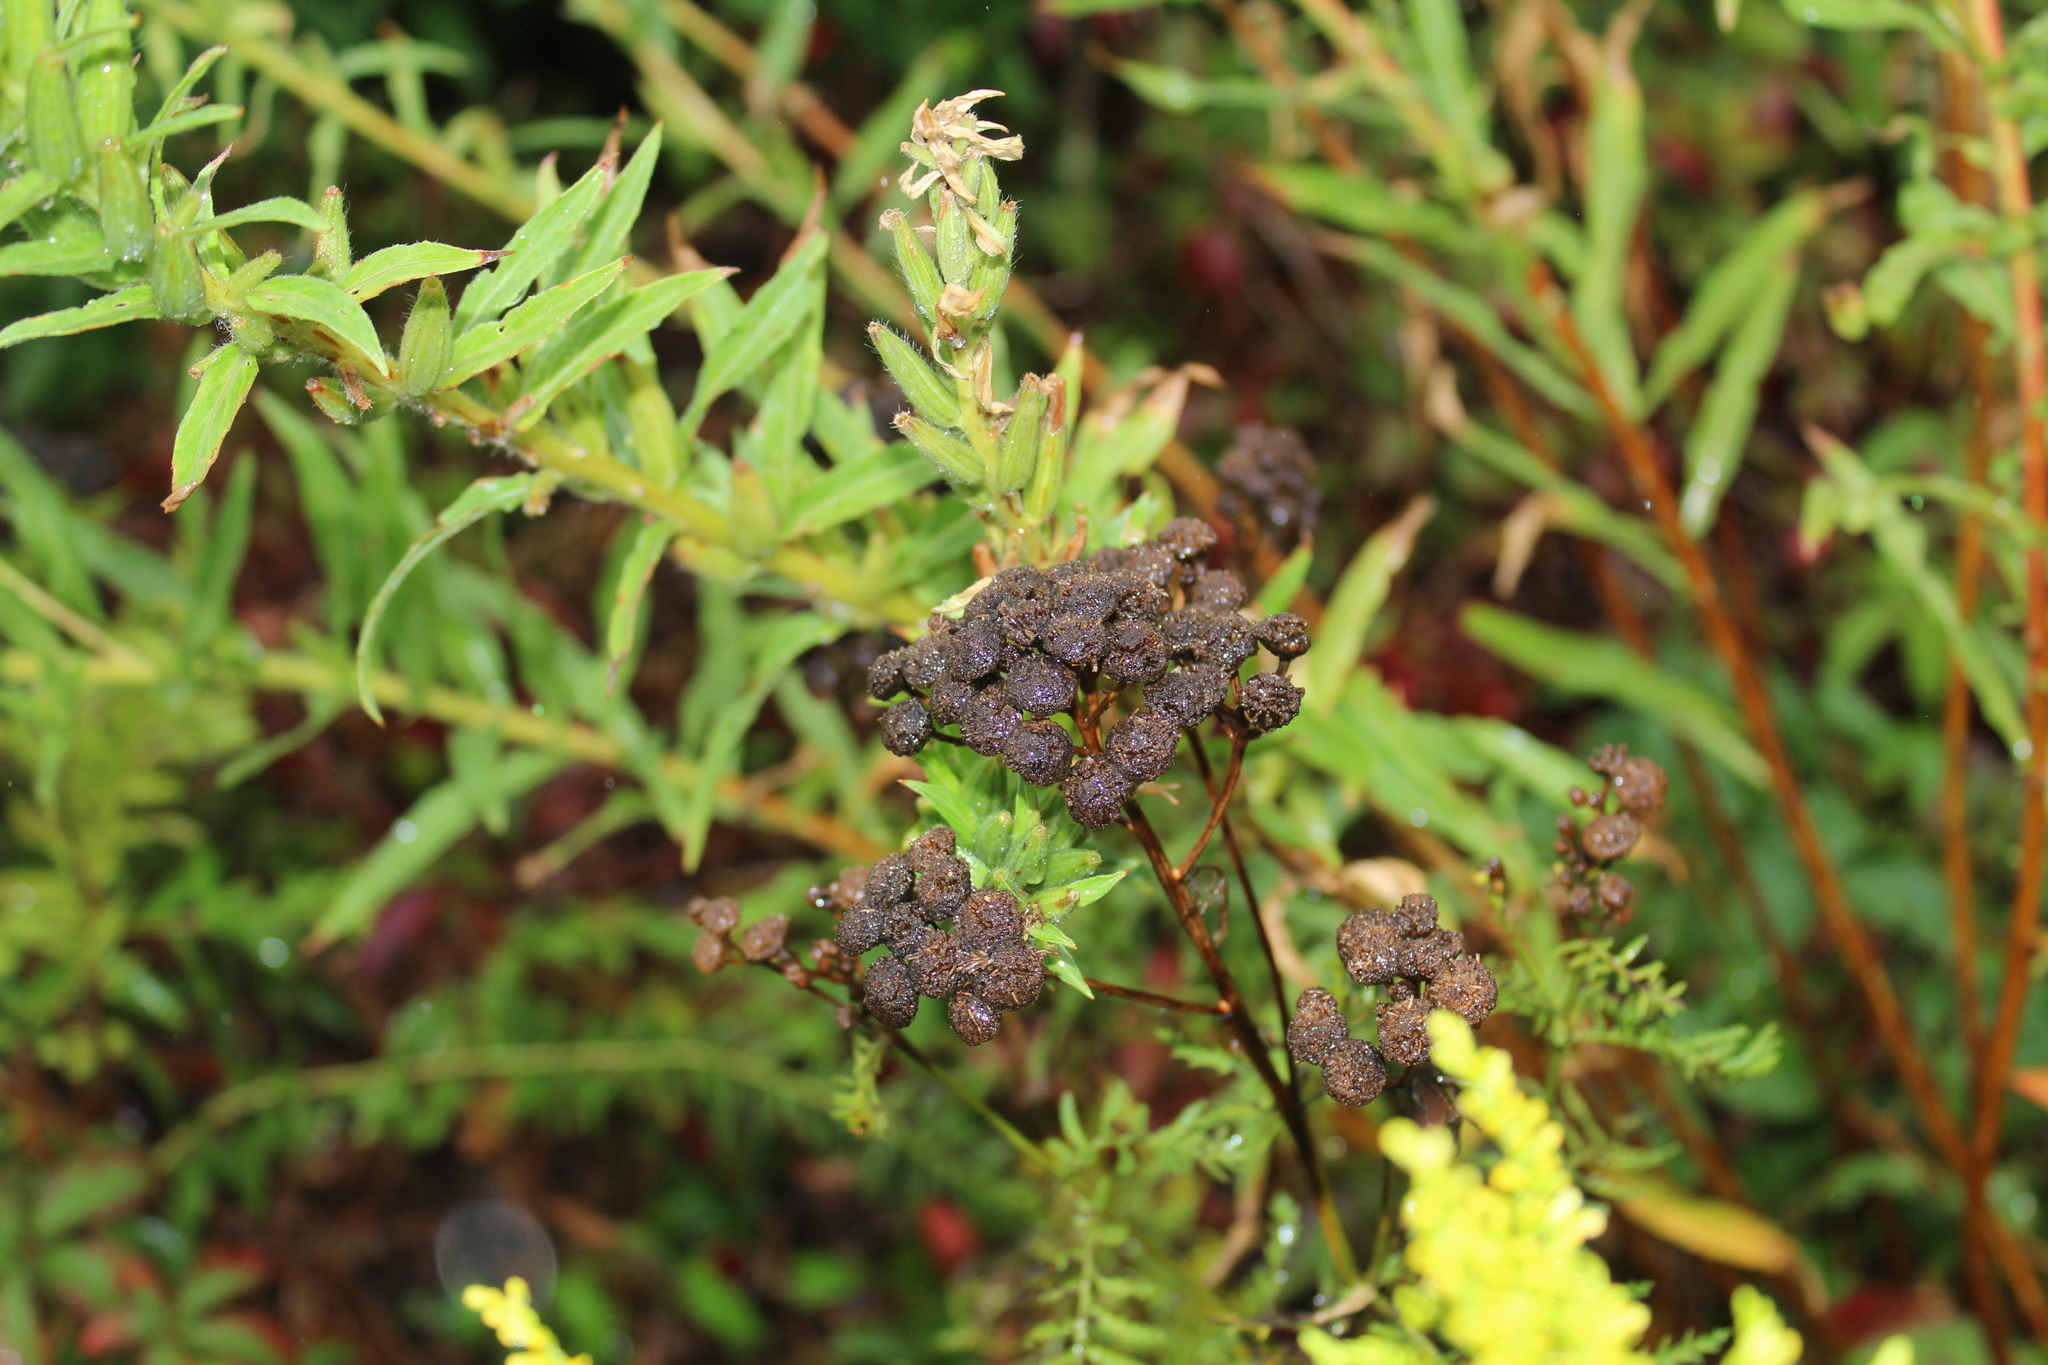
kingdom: Plantae
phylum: Tracheophyta
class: Magnoliopsida
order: Asterales
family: Asteraceae
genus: Tanacetum
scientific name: Tanacetum vulgare
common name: Common tansy
